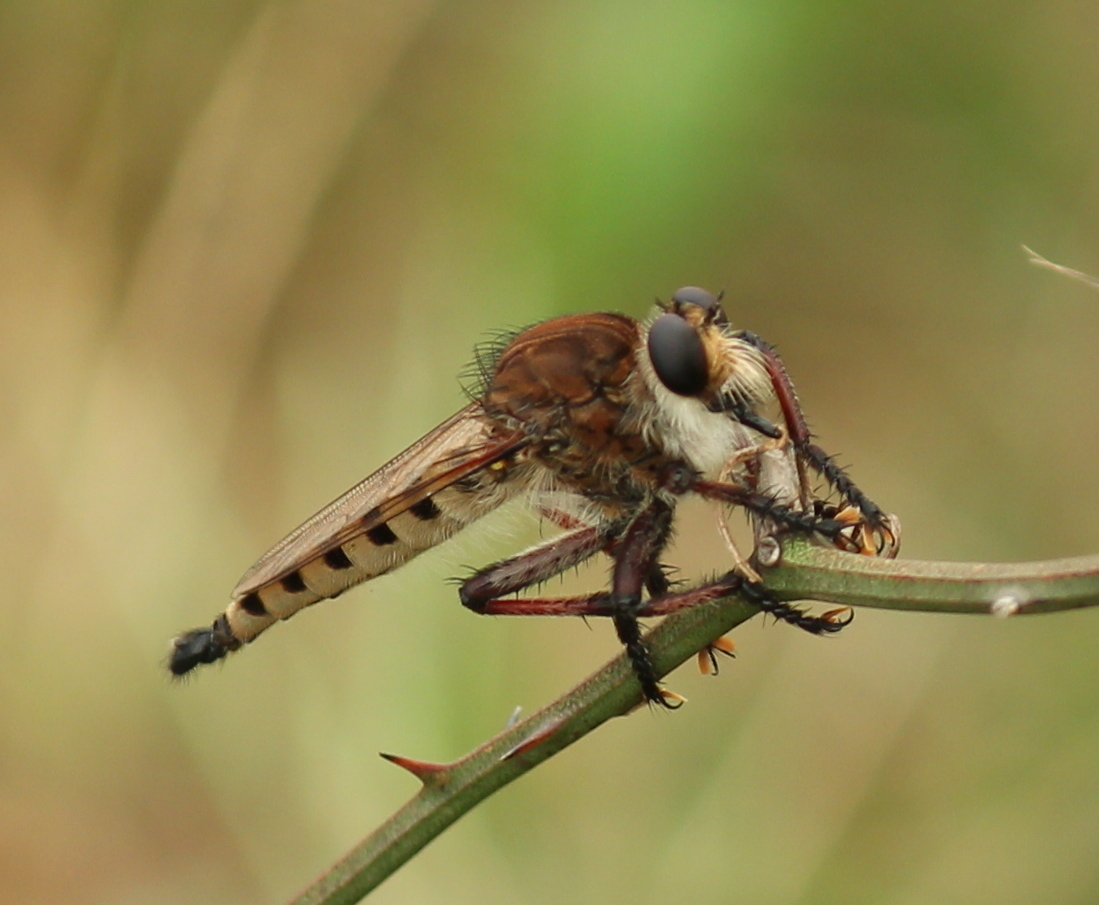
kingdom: Animalia
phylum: Arthropoda
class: Insecta
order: Diptera
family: Asilidae
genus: Promachus
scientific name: Promachus hinei
